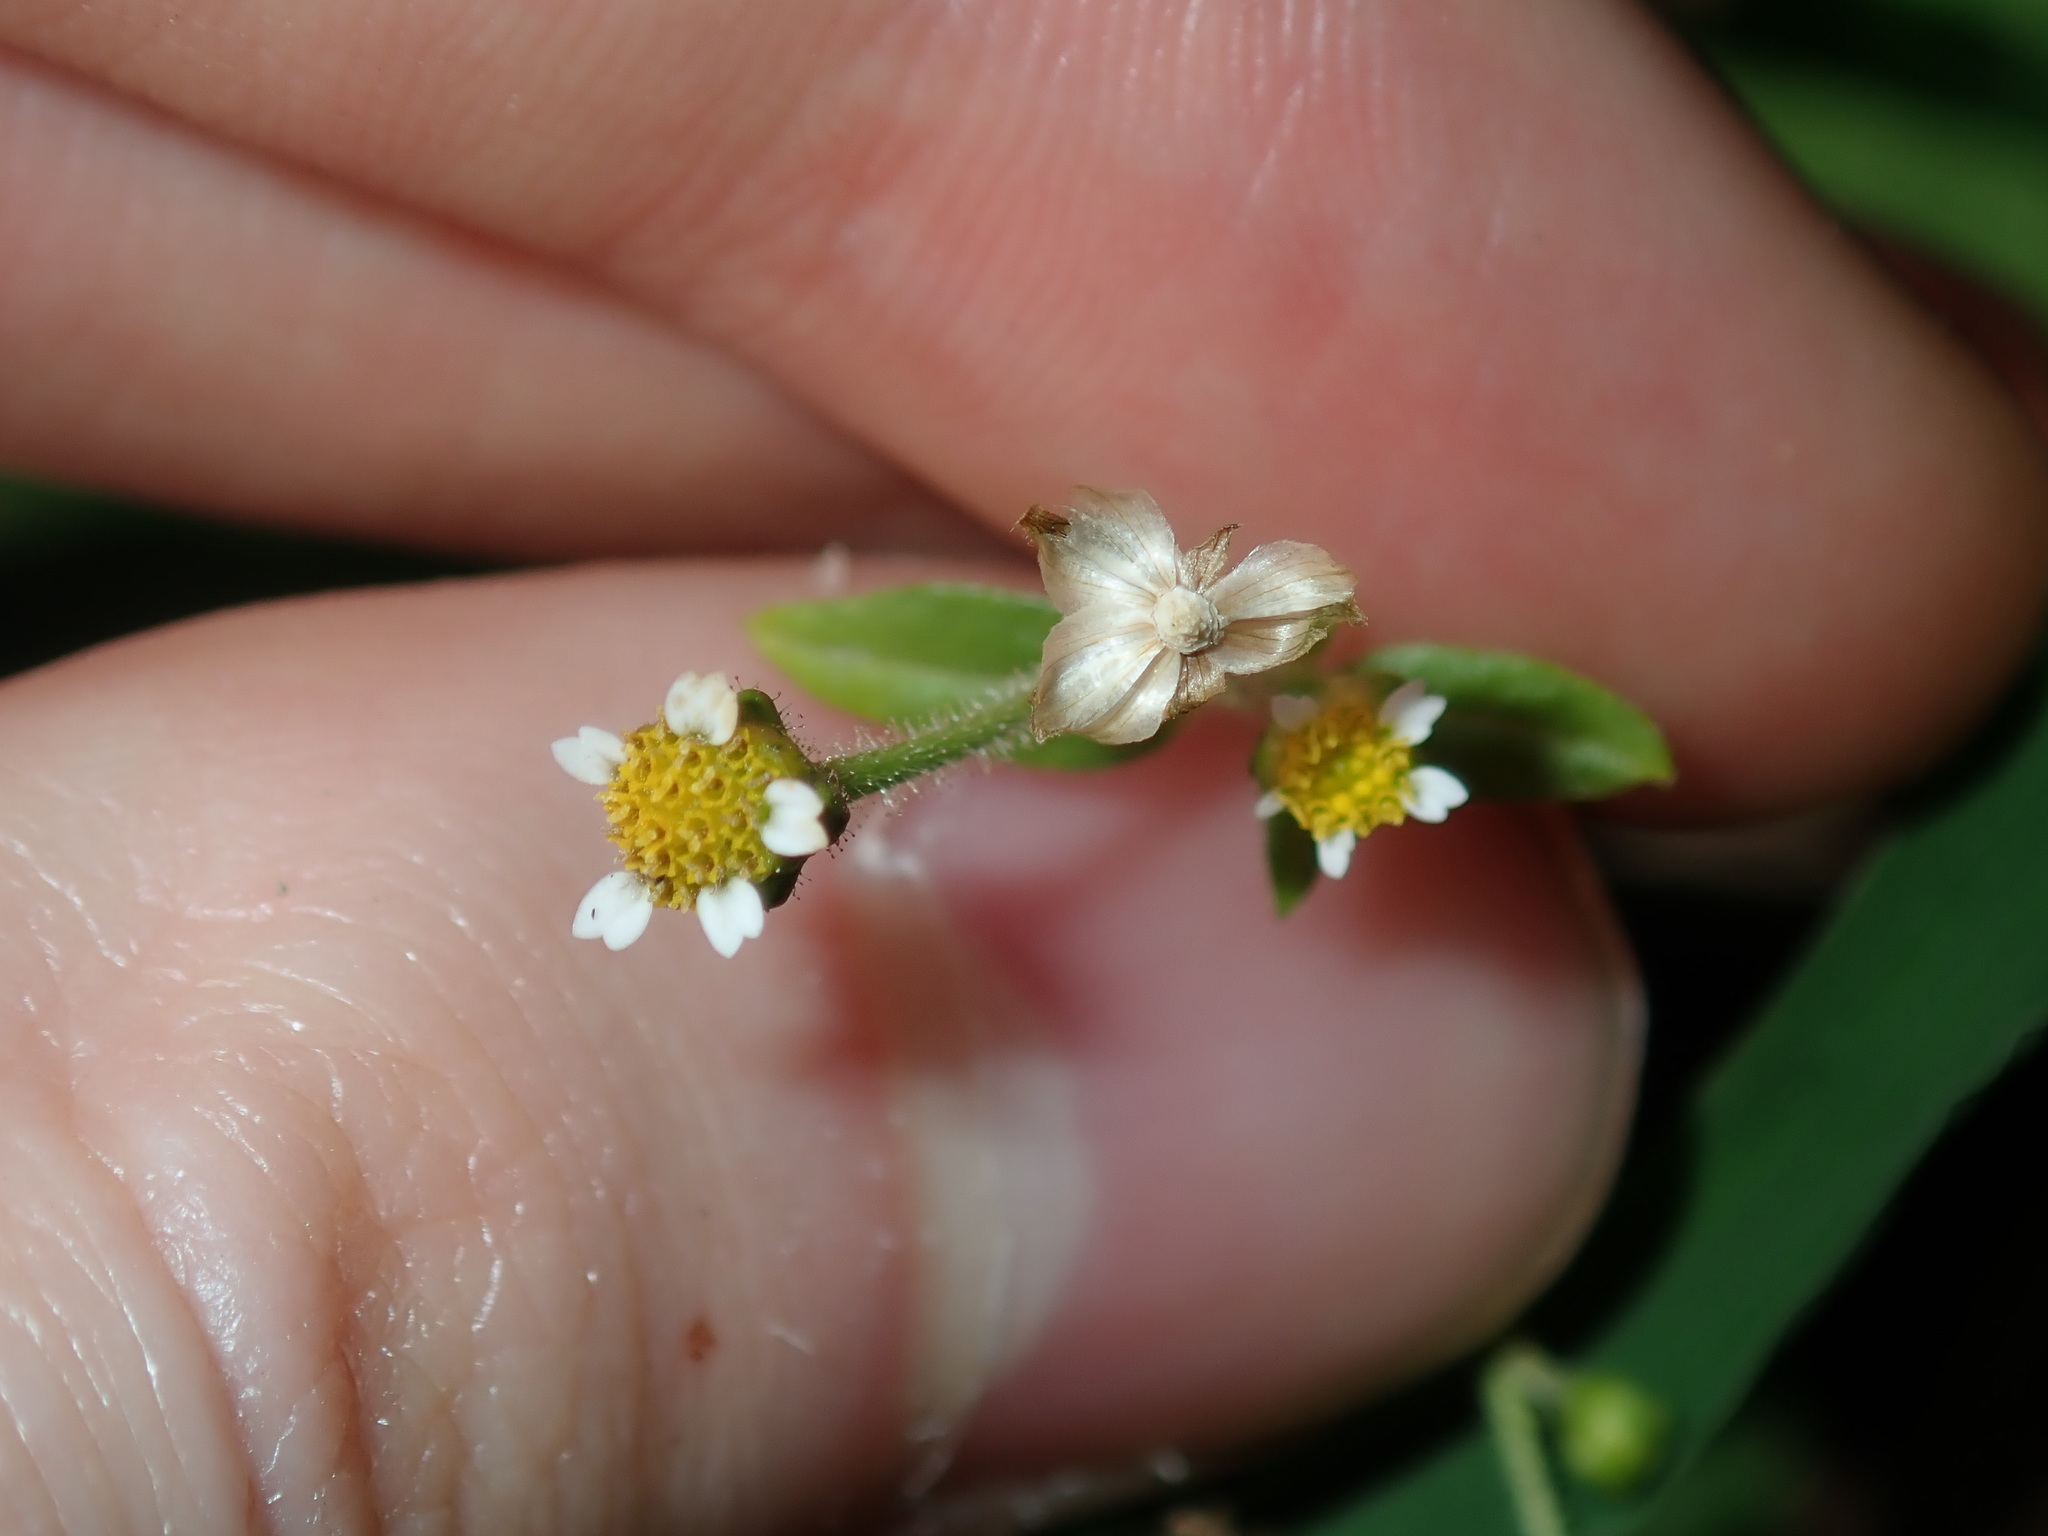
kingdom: Plantae
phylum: Tracheophyta
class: Magnoliopsida
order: Asterales
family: Asteraceae
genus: Galinsoga
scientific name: Galinsoga parviflora
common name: Gallant soldier
